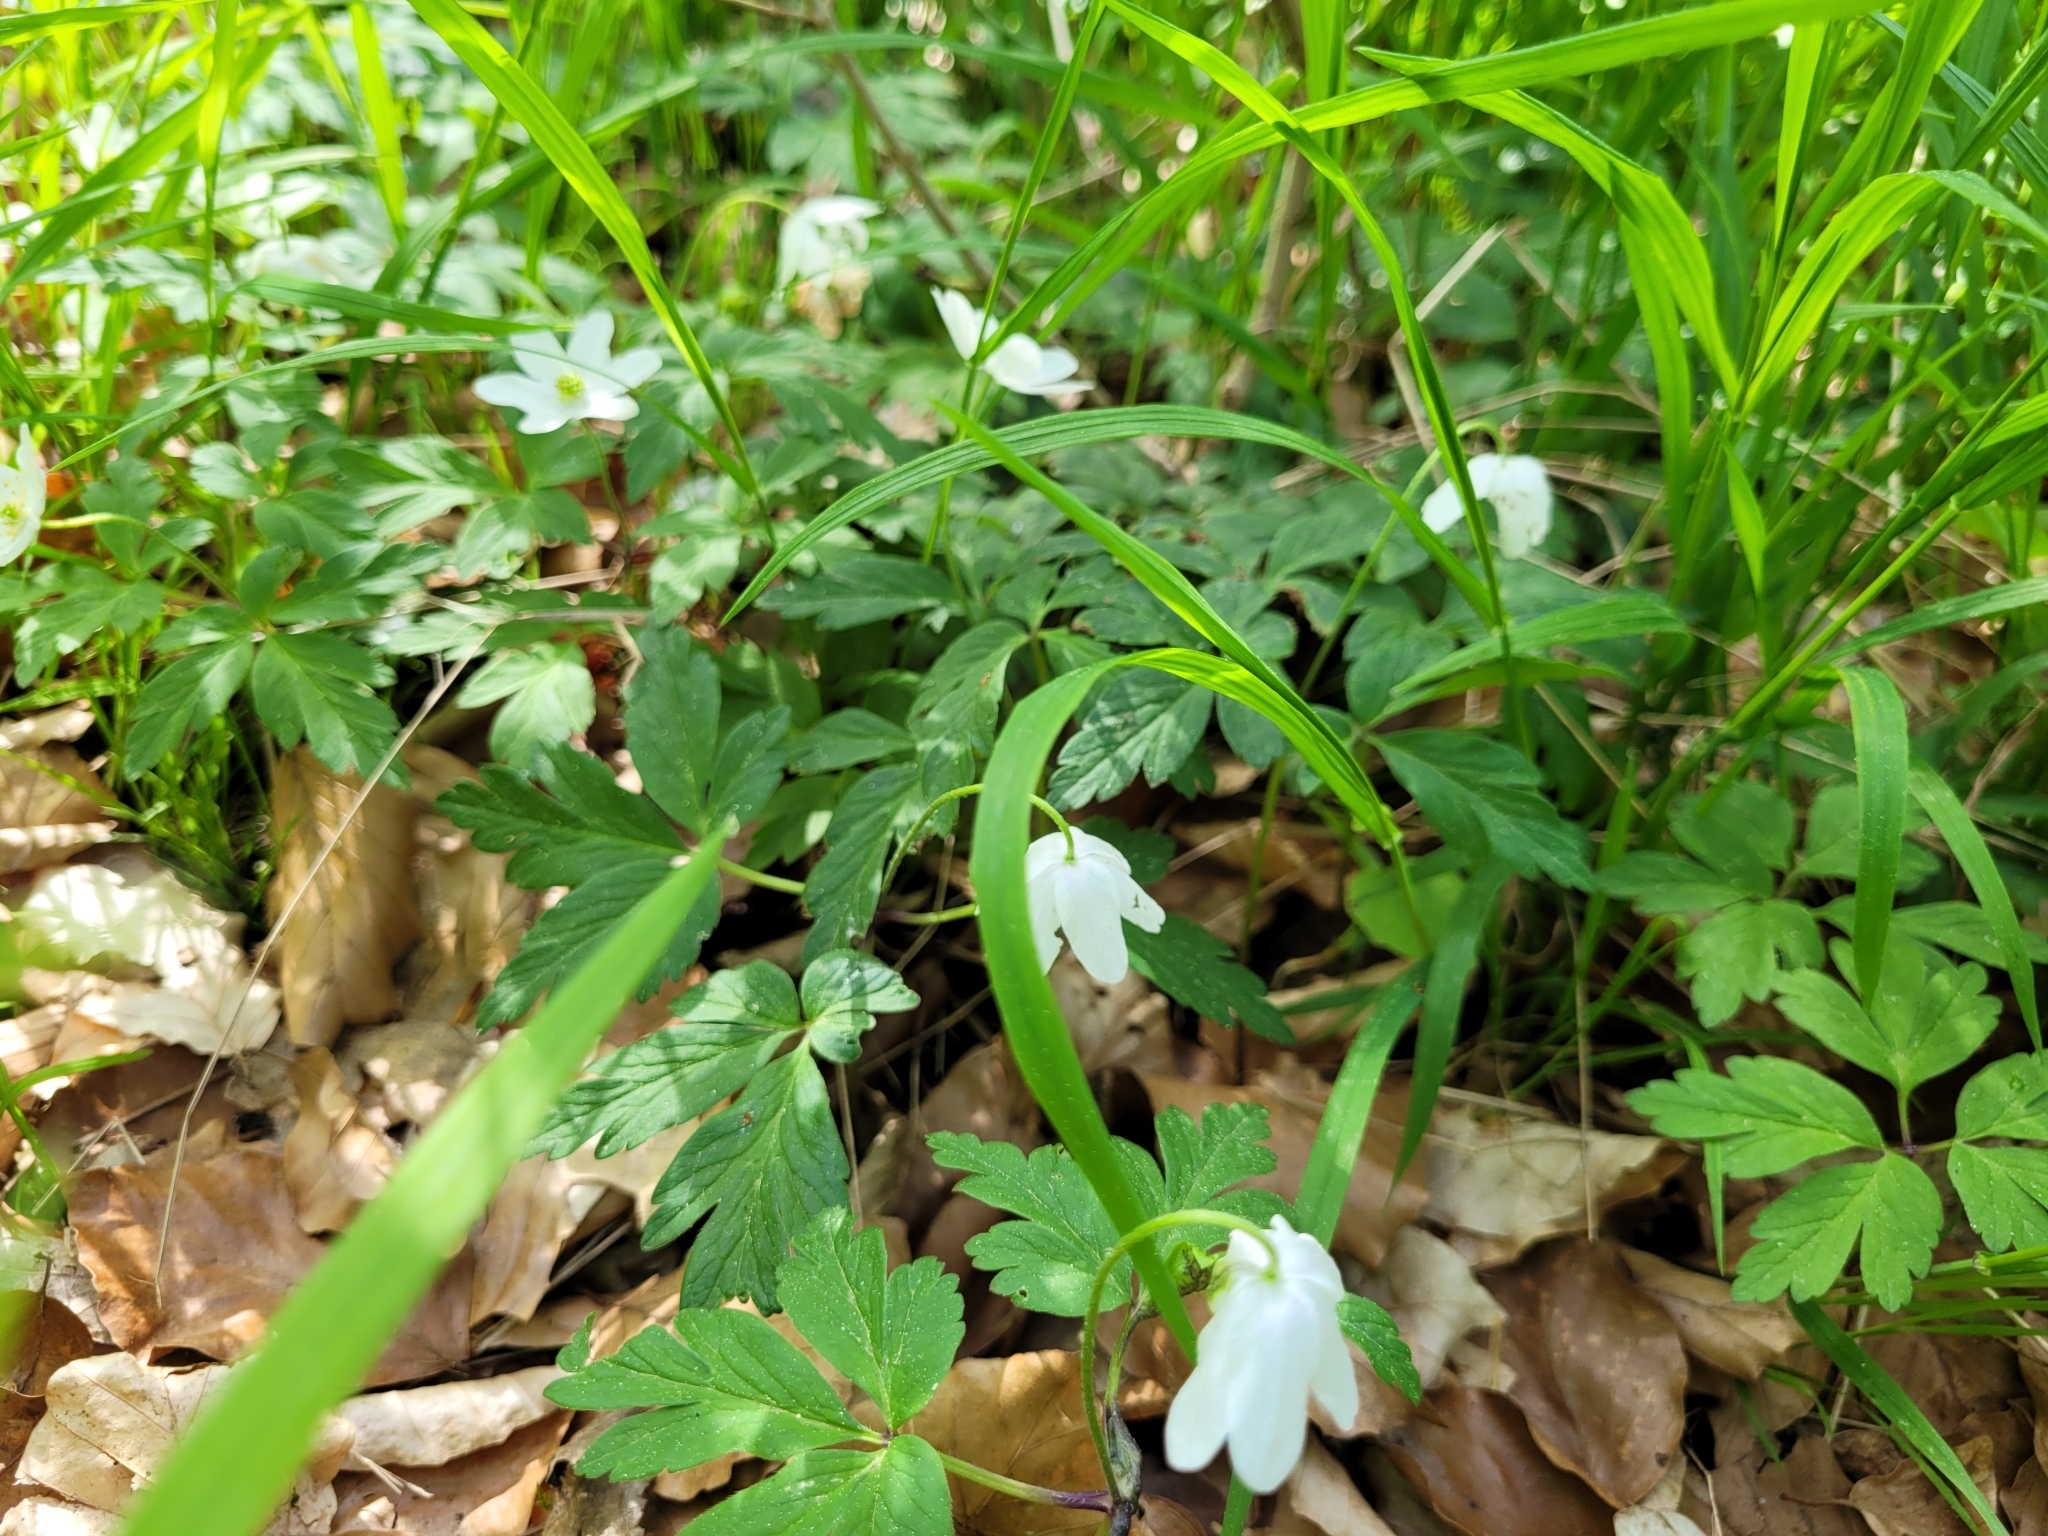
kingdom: Plantae
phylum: Tracheophyta
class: Magnoliopsida
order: Ranunculales
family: Ranunculaceae
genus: Anemone
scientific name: Anemone nemorosa
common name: Wood anemone
